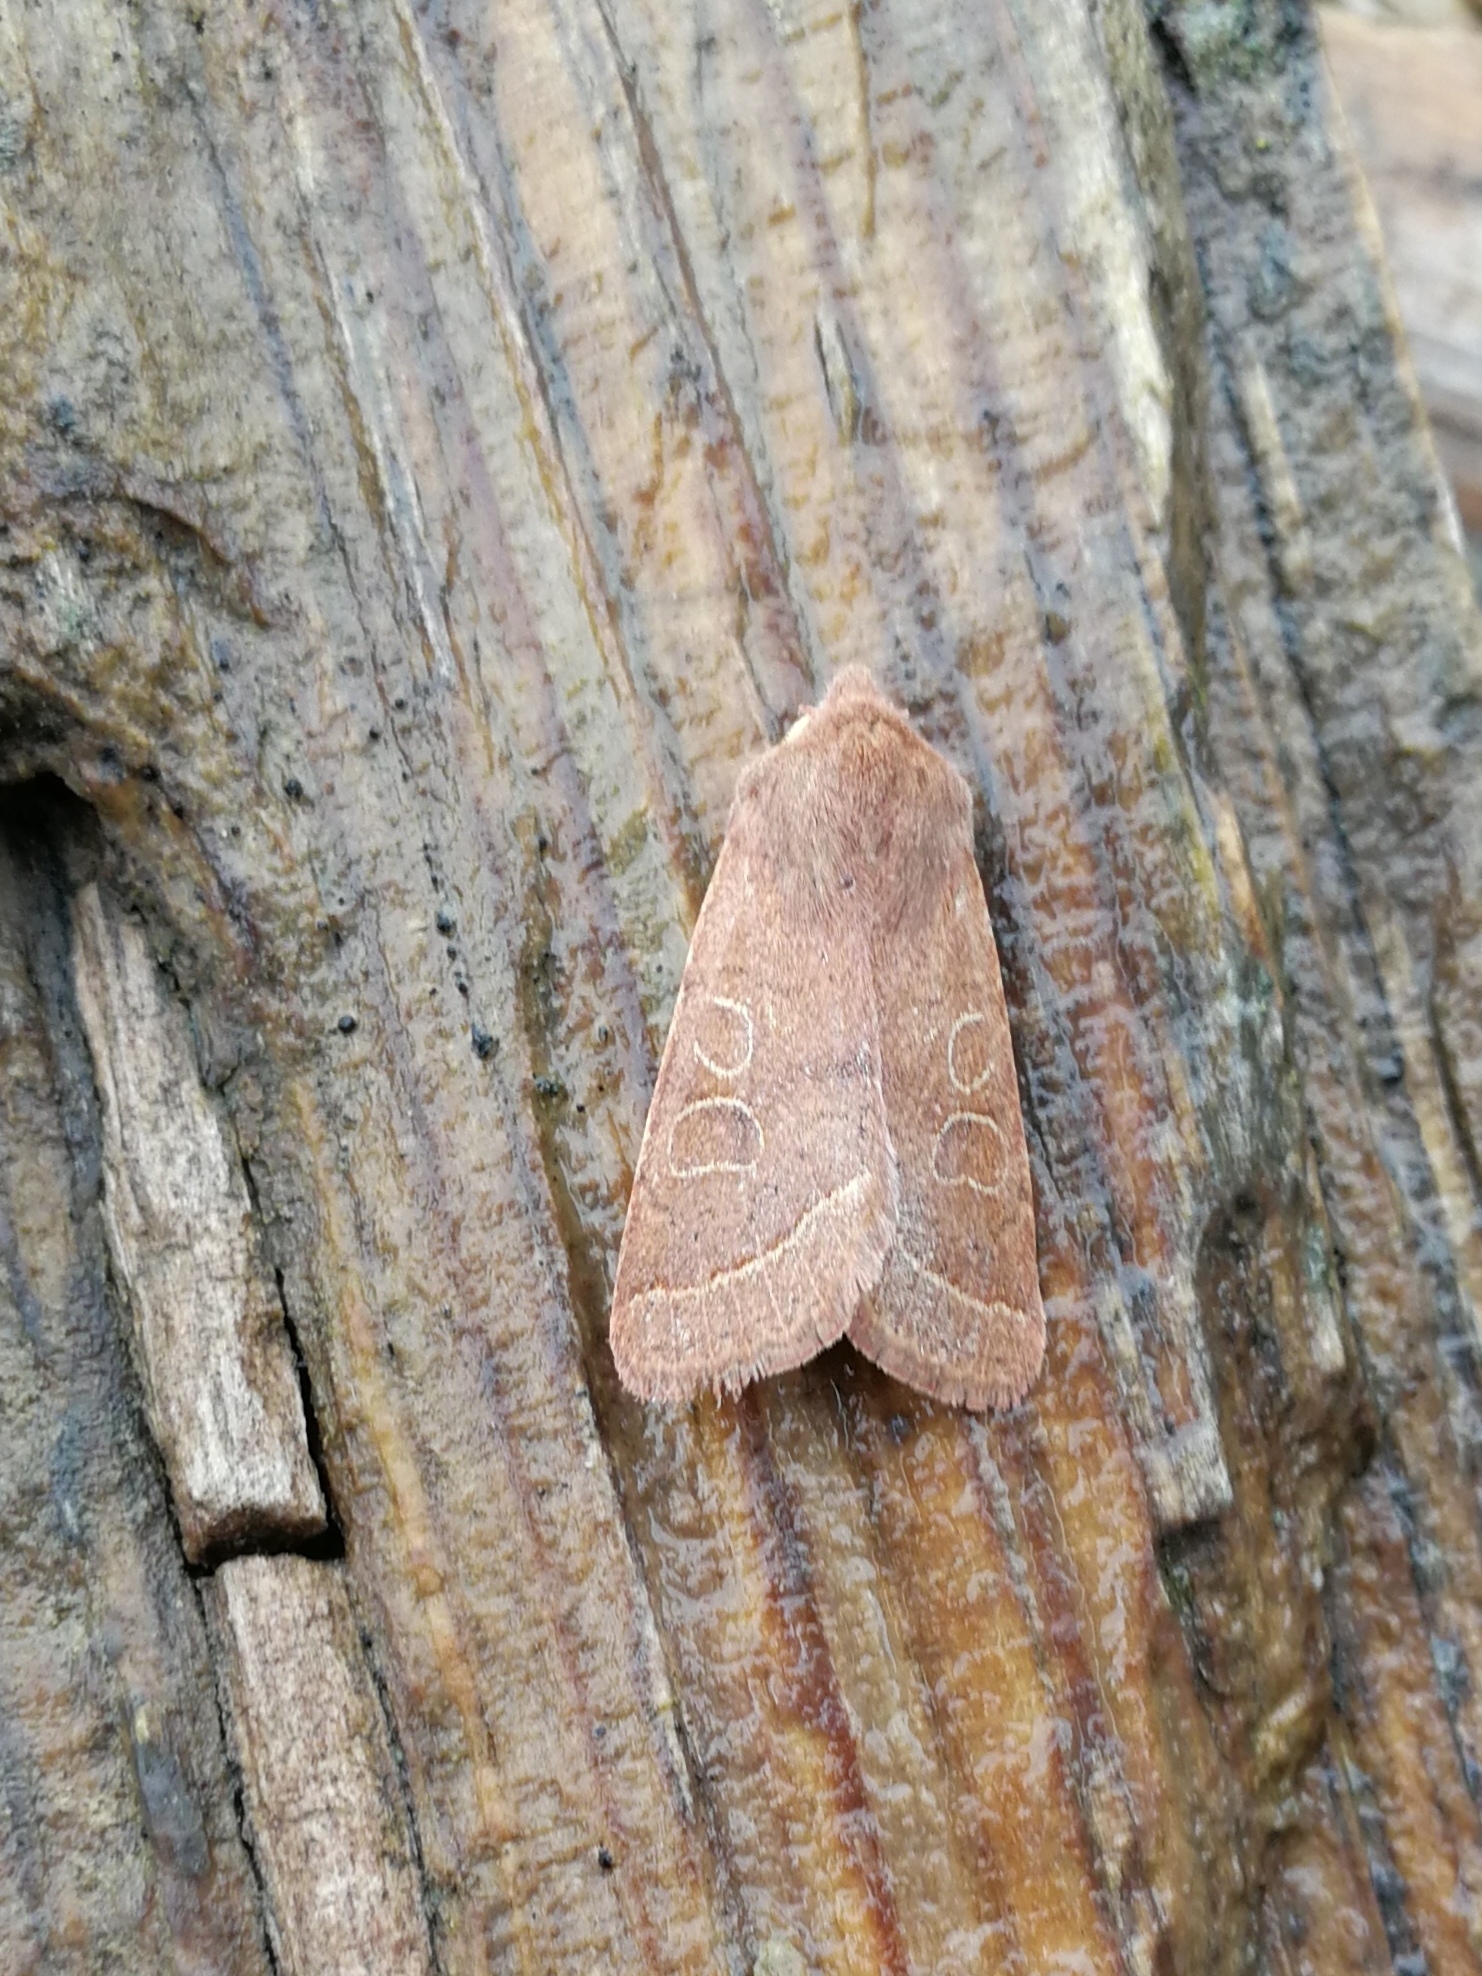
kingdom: Animalia
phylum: Arthropoda
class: Insecta
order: Lepidoptera
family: Noctuidae
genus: Orthosia
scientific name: Orthosia cerasi
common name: Common quaker
